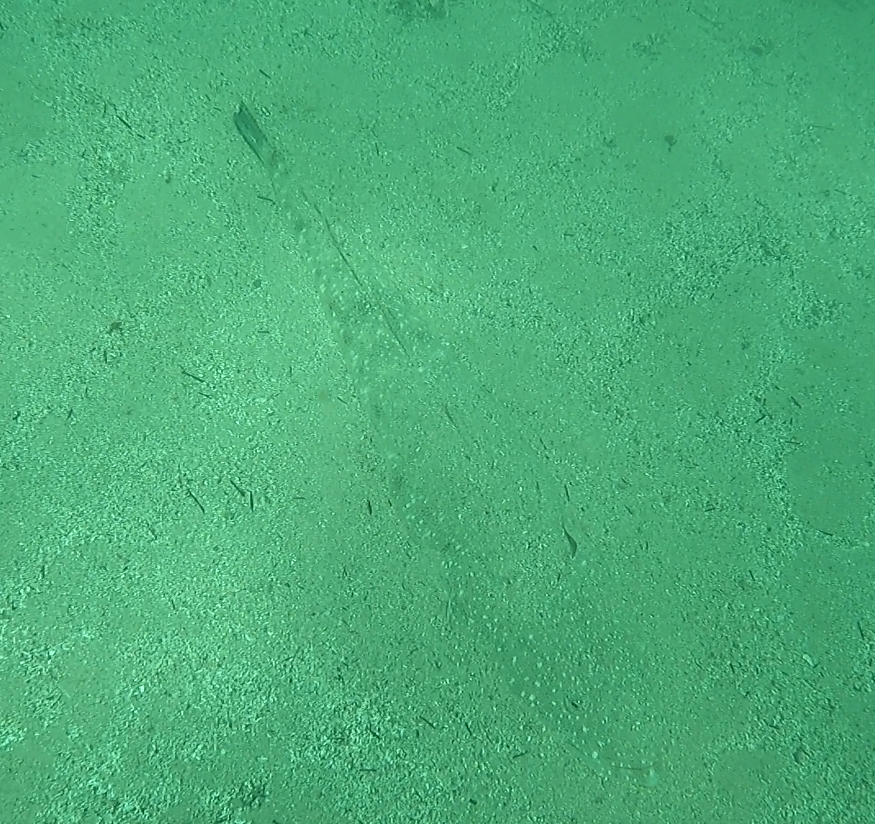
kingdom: Animalia
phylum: Chordata
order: Scorpaeniformes
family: Platycephalidae
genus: Platycephalus
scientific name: Platycephalus fuscus
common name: Dusky flathead
